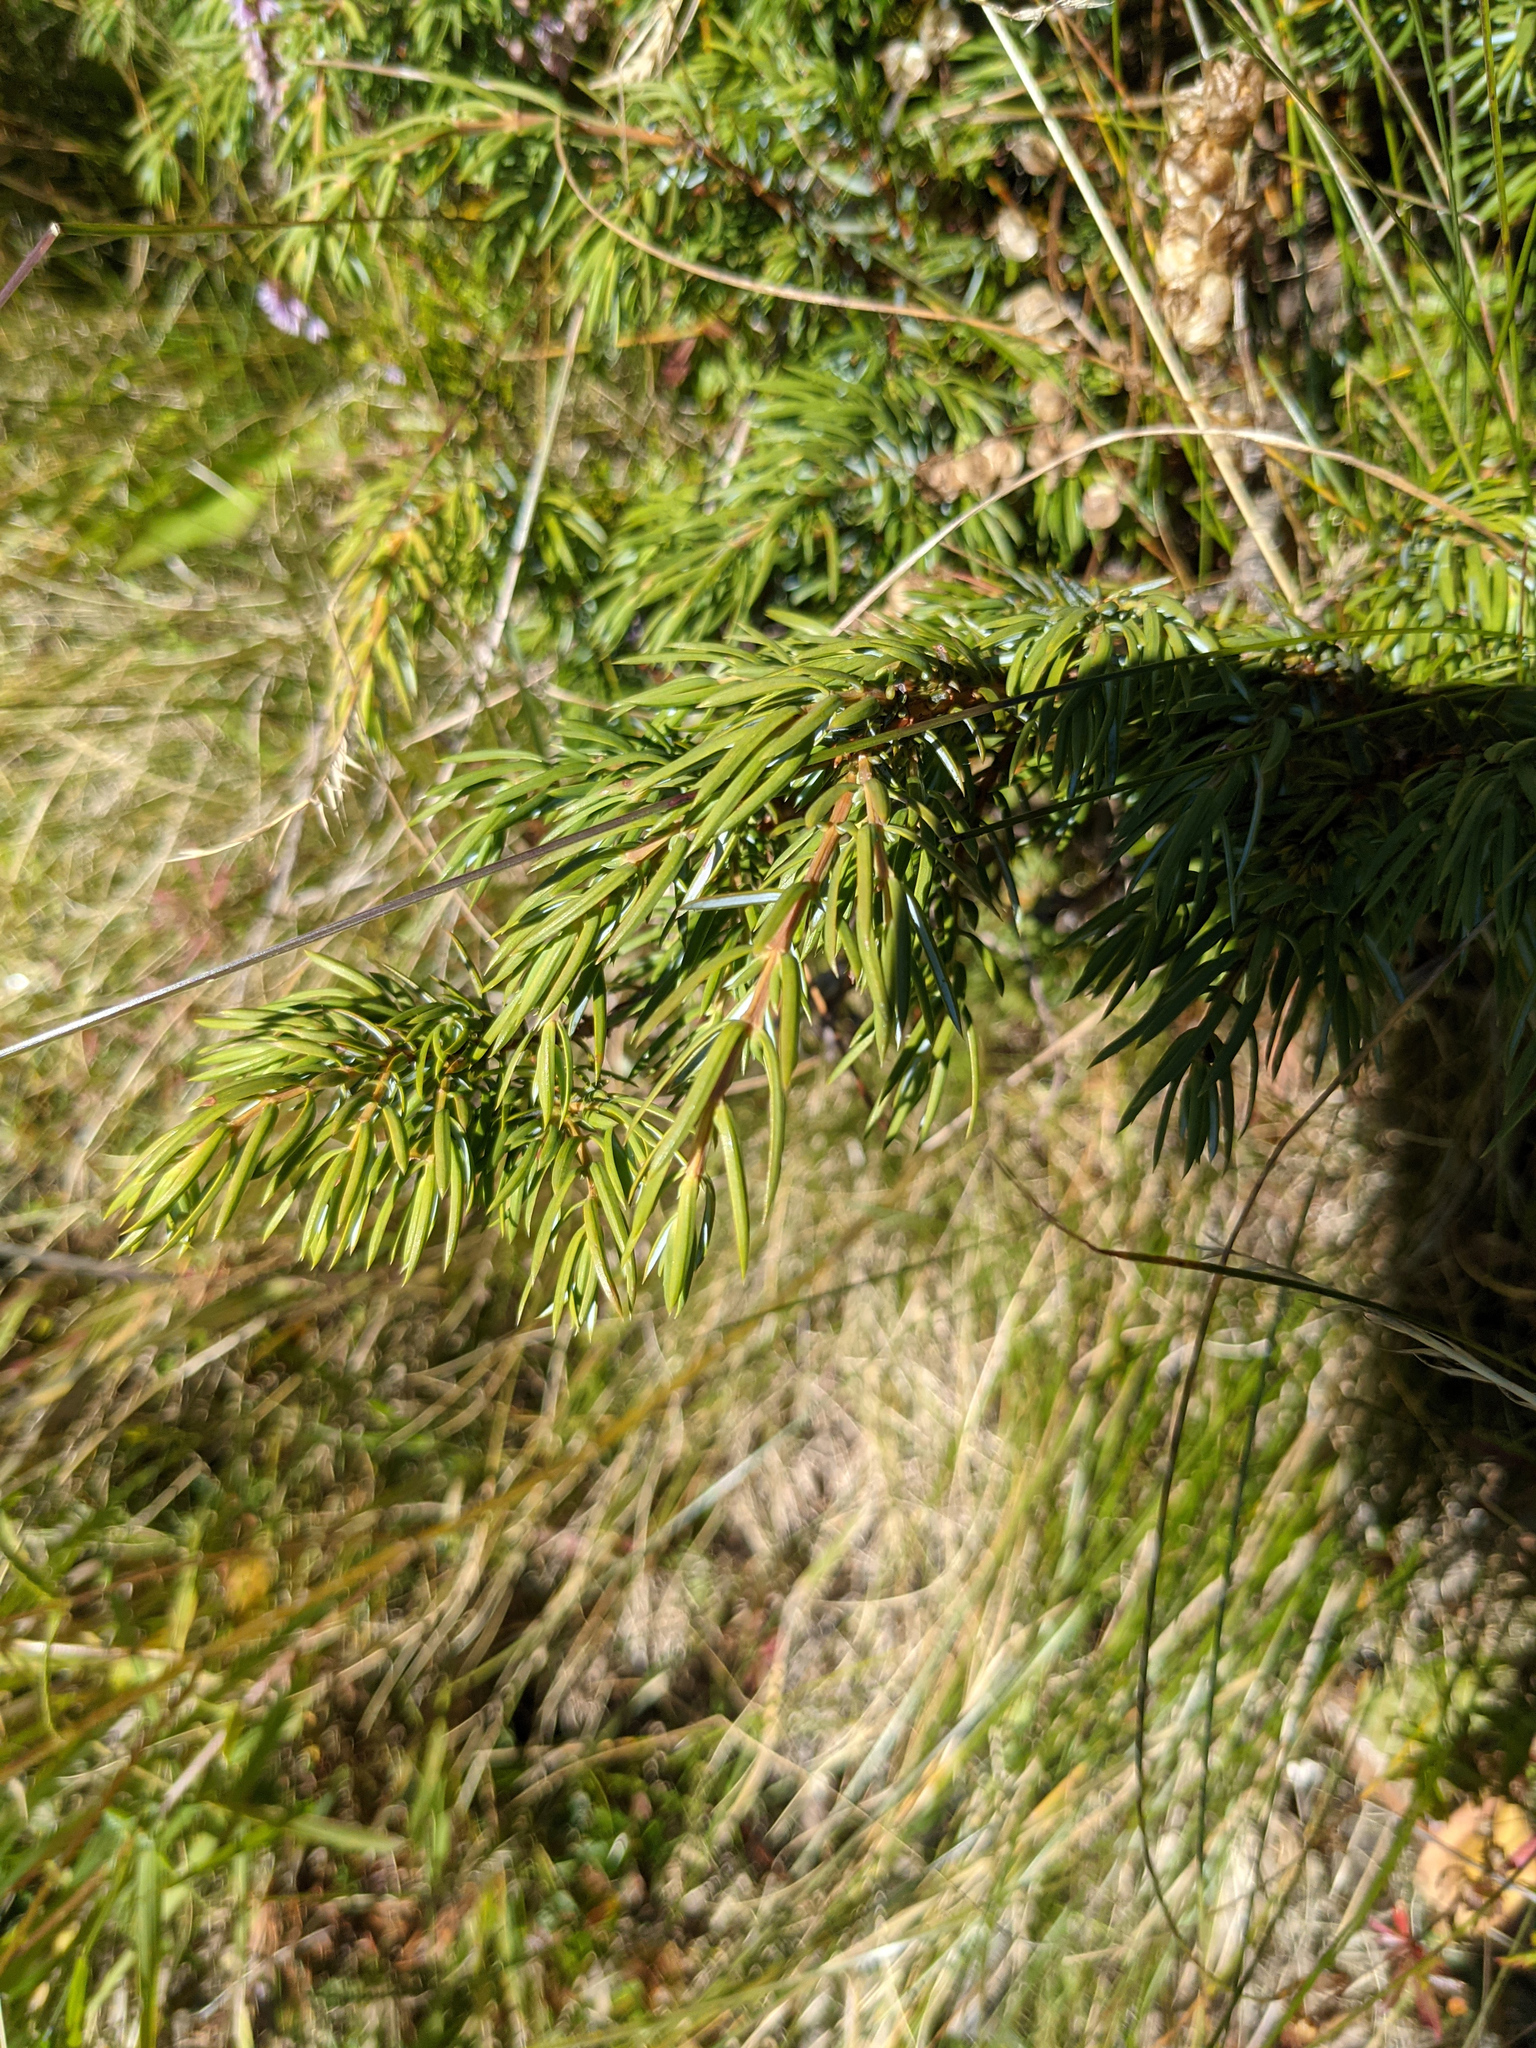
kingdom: Plantae
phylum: Tracheophyta
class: Pinopsida
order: Pinales
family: Cupressaceae
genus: Juniperus
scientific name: Juniperus communis
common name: Common juniper
